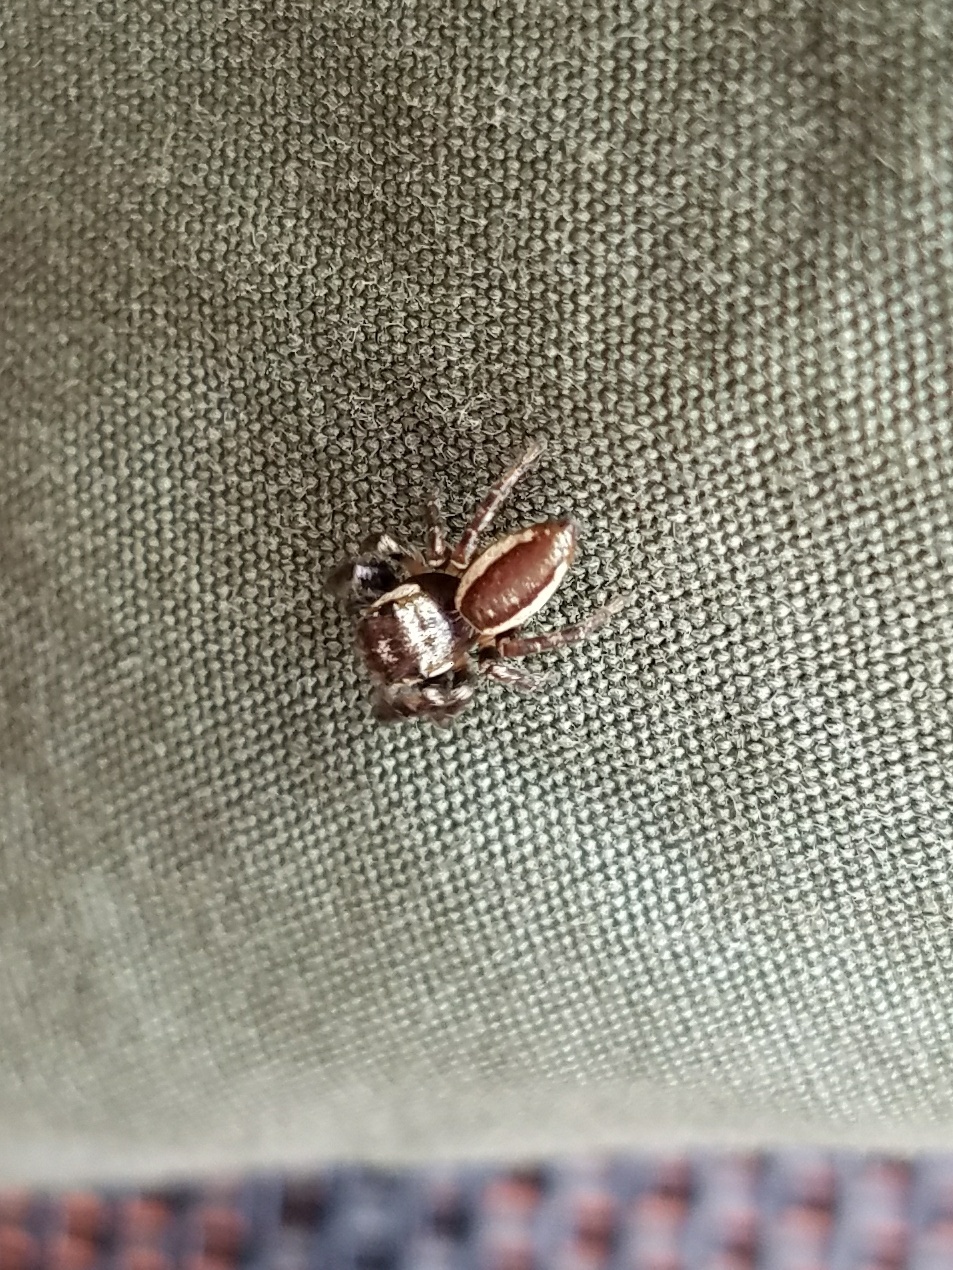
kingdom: Animalia
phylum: Arthropoda
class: Arachnida
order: Araneae
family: Salticidae
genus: Eris
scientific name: Eris militaris
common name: Bronze jumper
